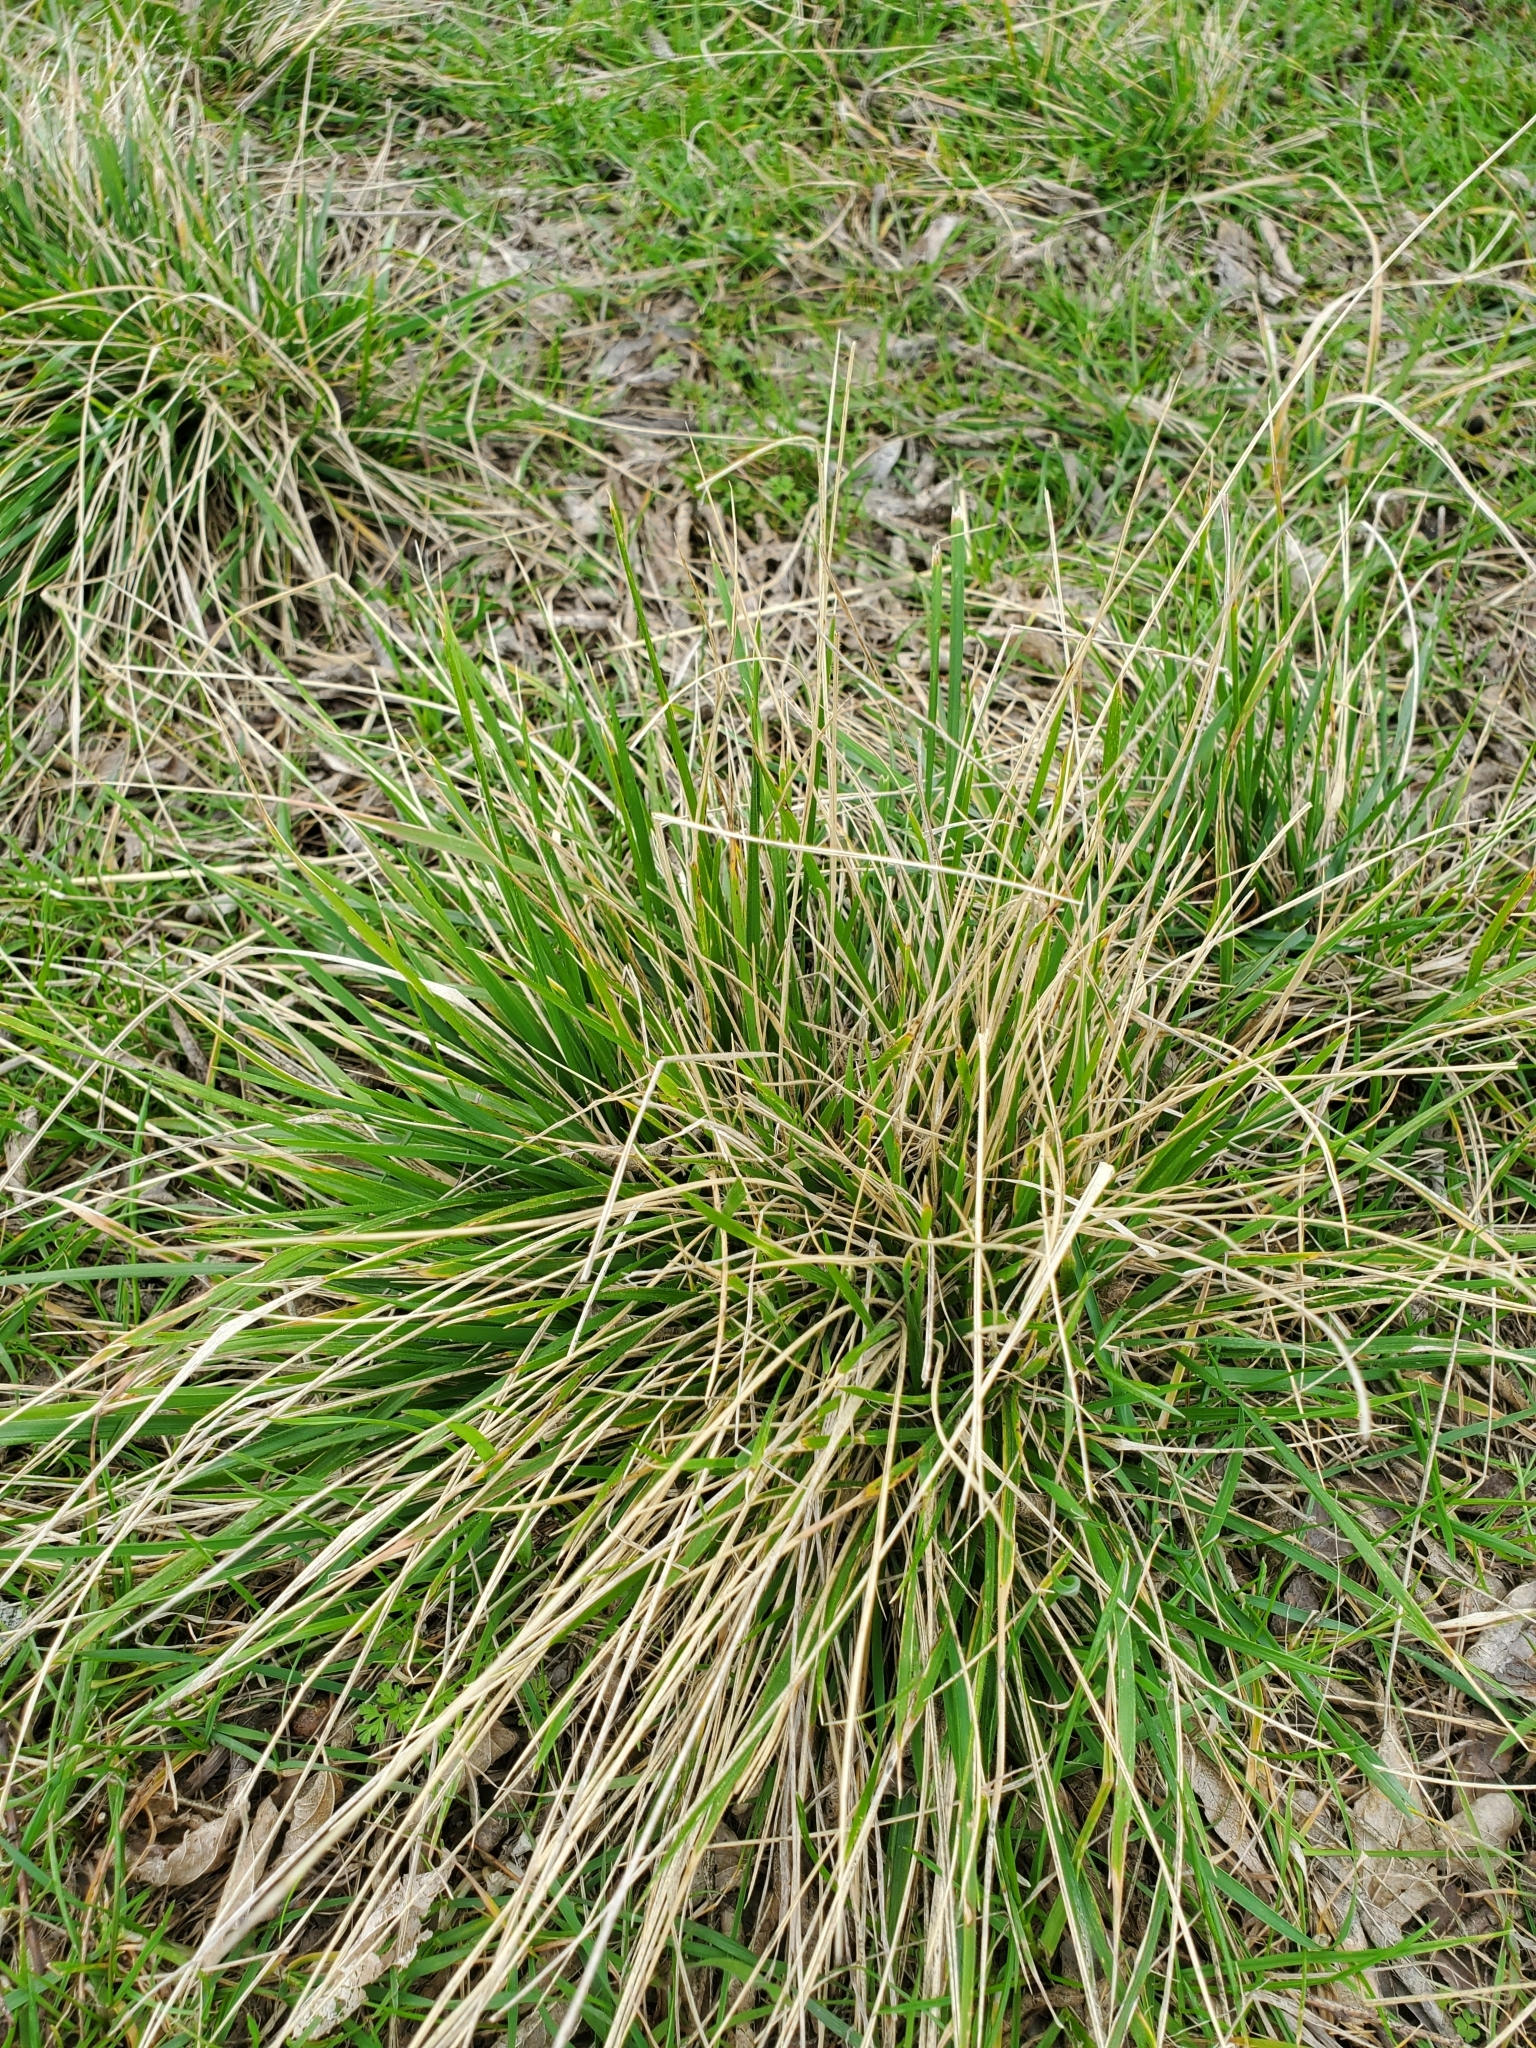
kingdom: Plantae
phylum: Tracheophyta
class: Liliopsida
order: Poales
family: Poaceae
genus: Nassella
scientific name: Nassella leucotricha
